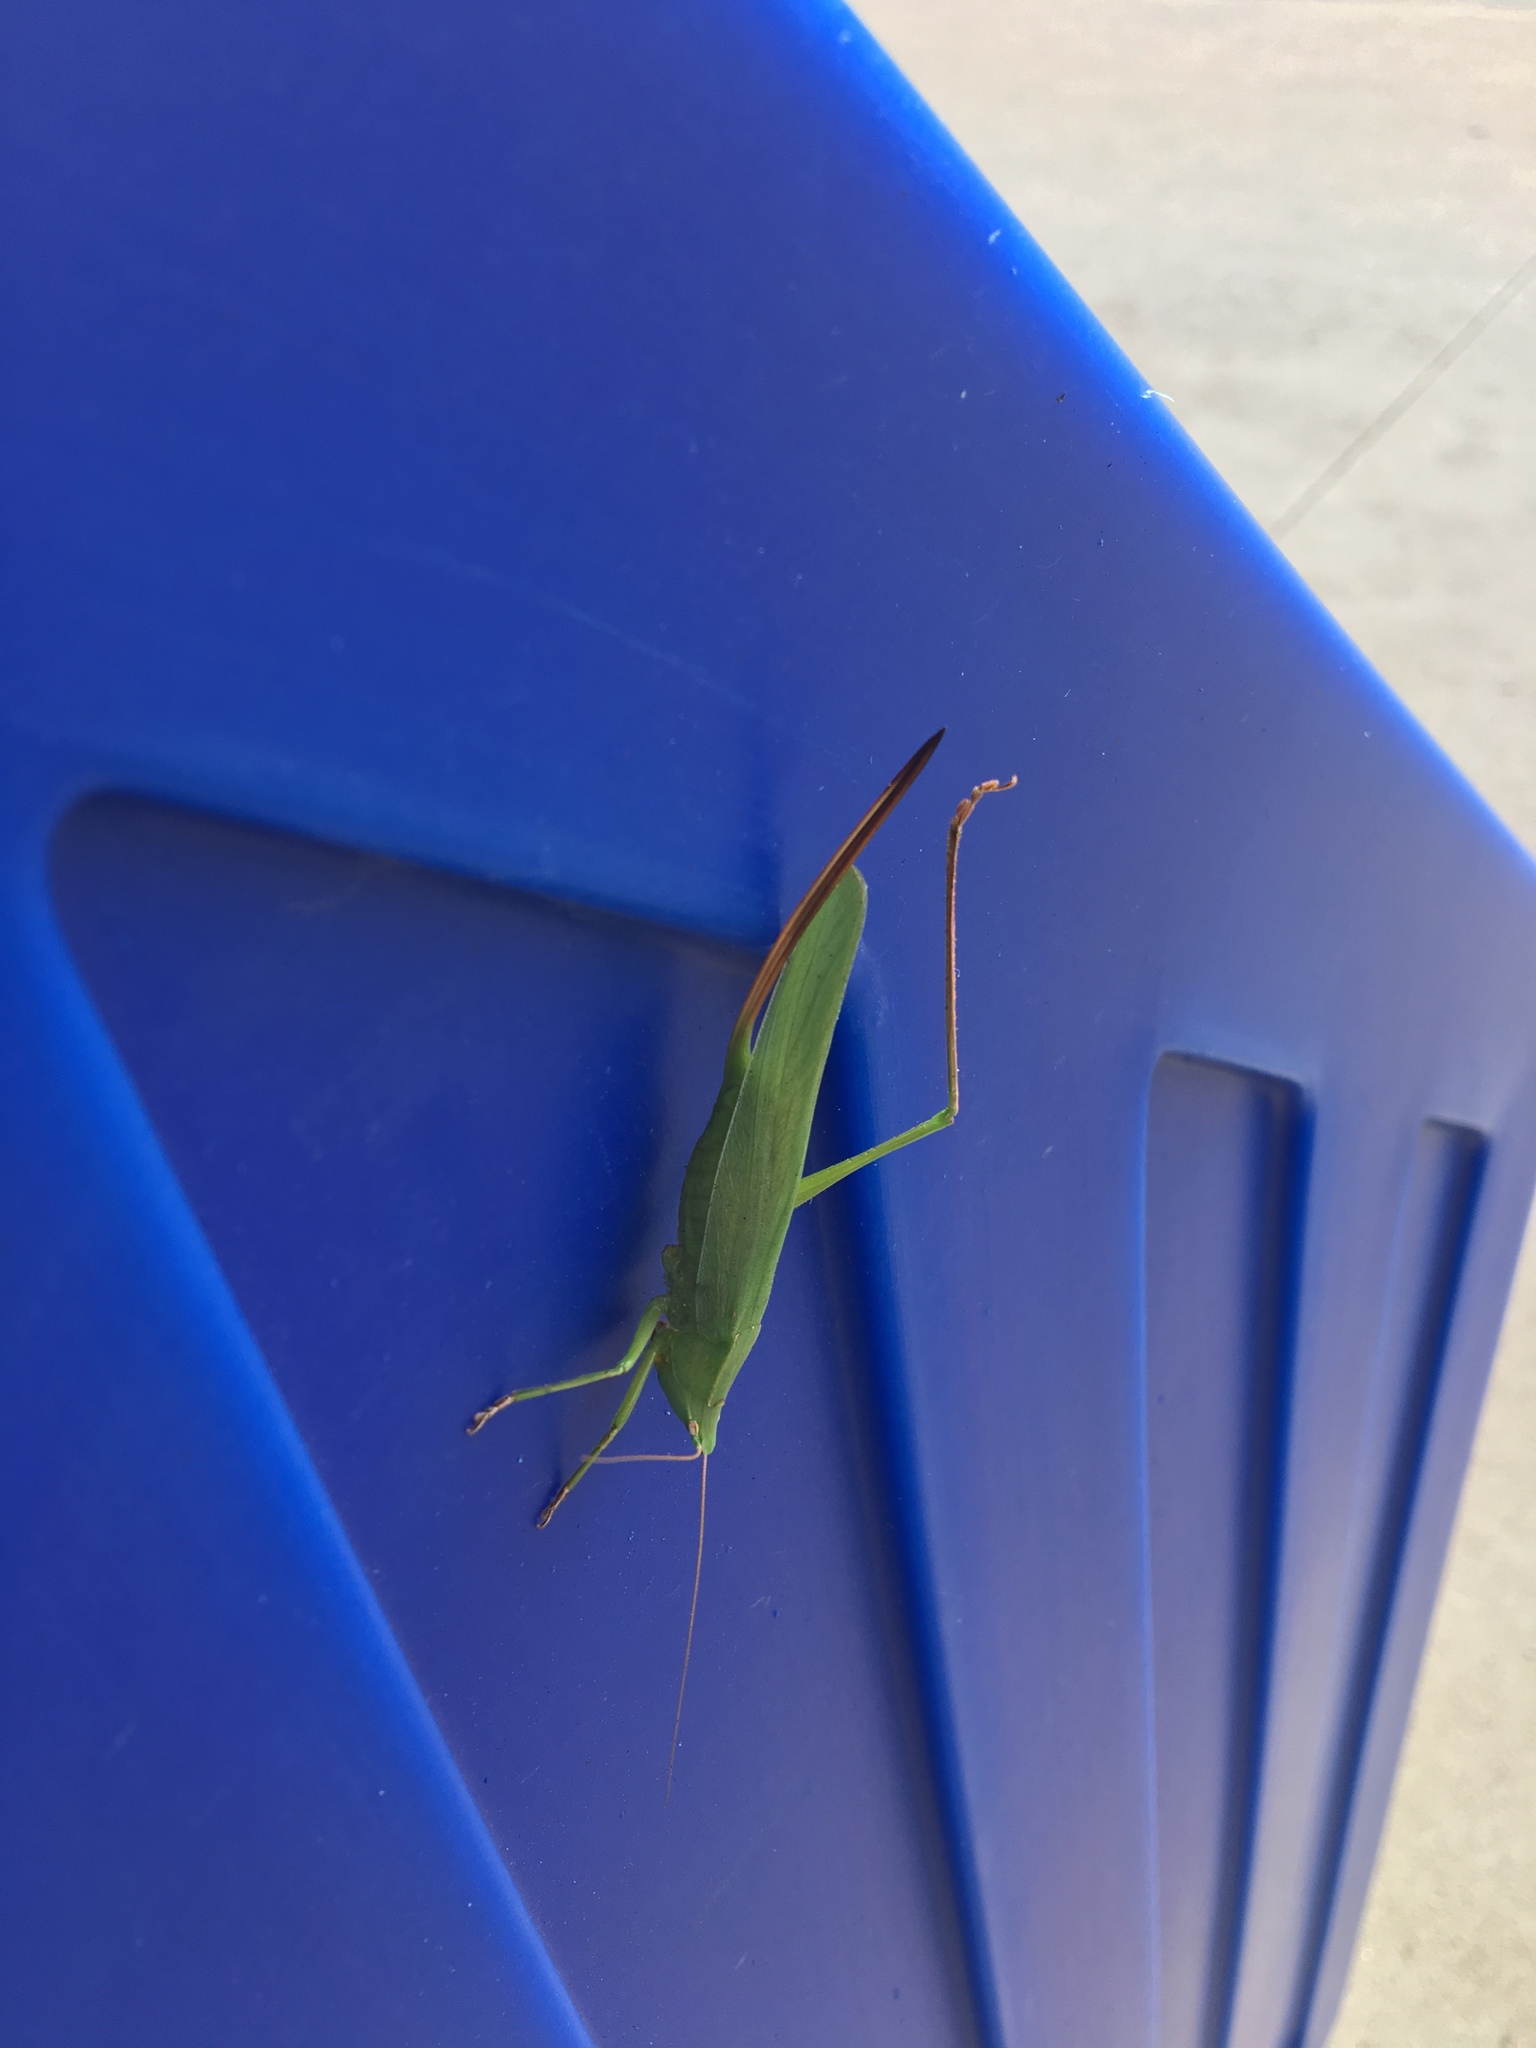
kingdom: Animalia
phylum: Arthropoda
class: Insecta
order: Orthoptera
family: Tettigoniidae
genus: Neoconocephalus
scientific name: Neoconocephalus retusus
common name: Round-tipped conehead
